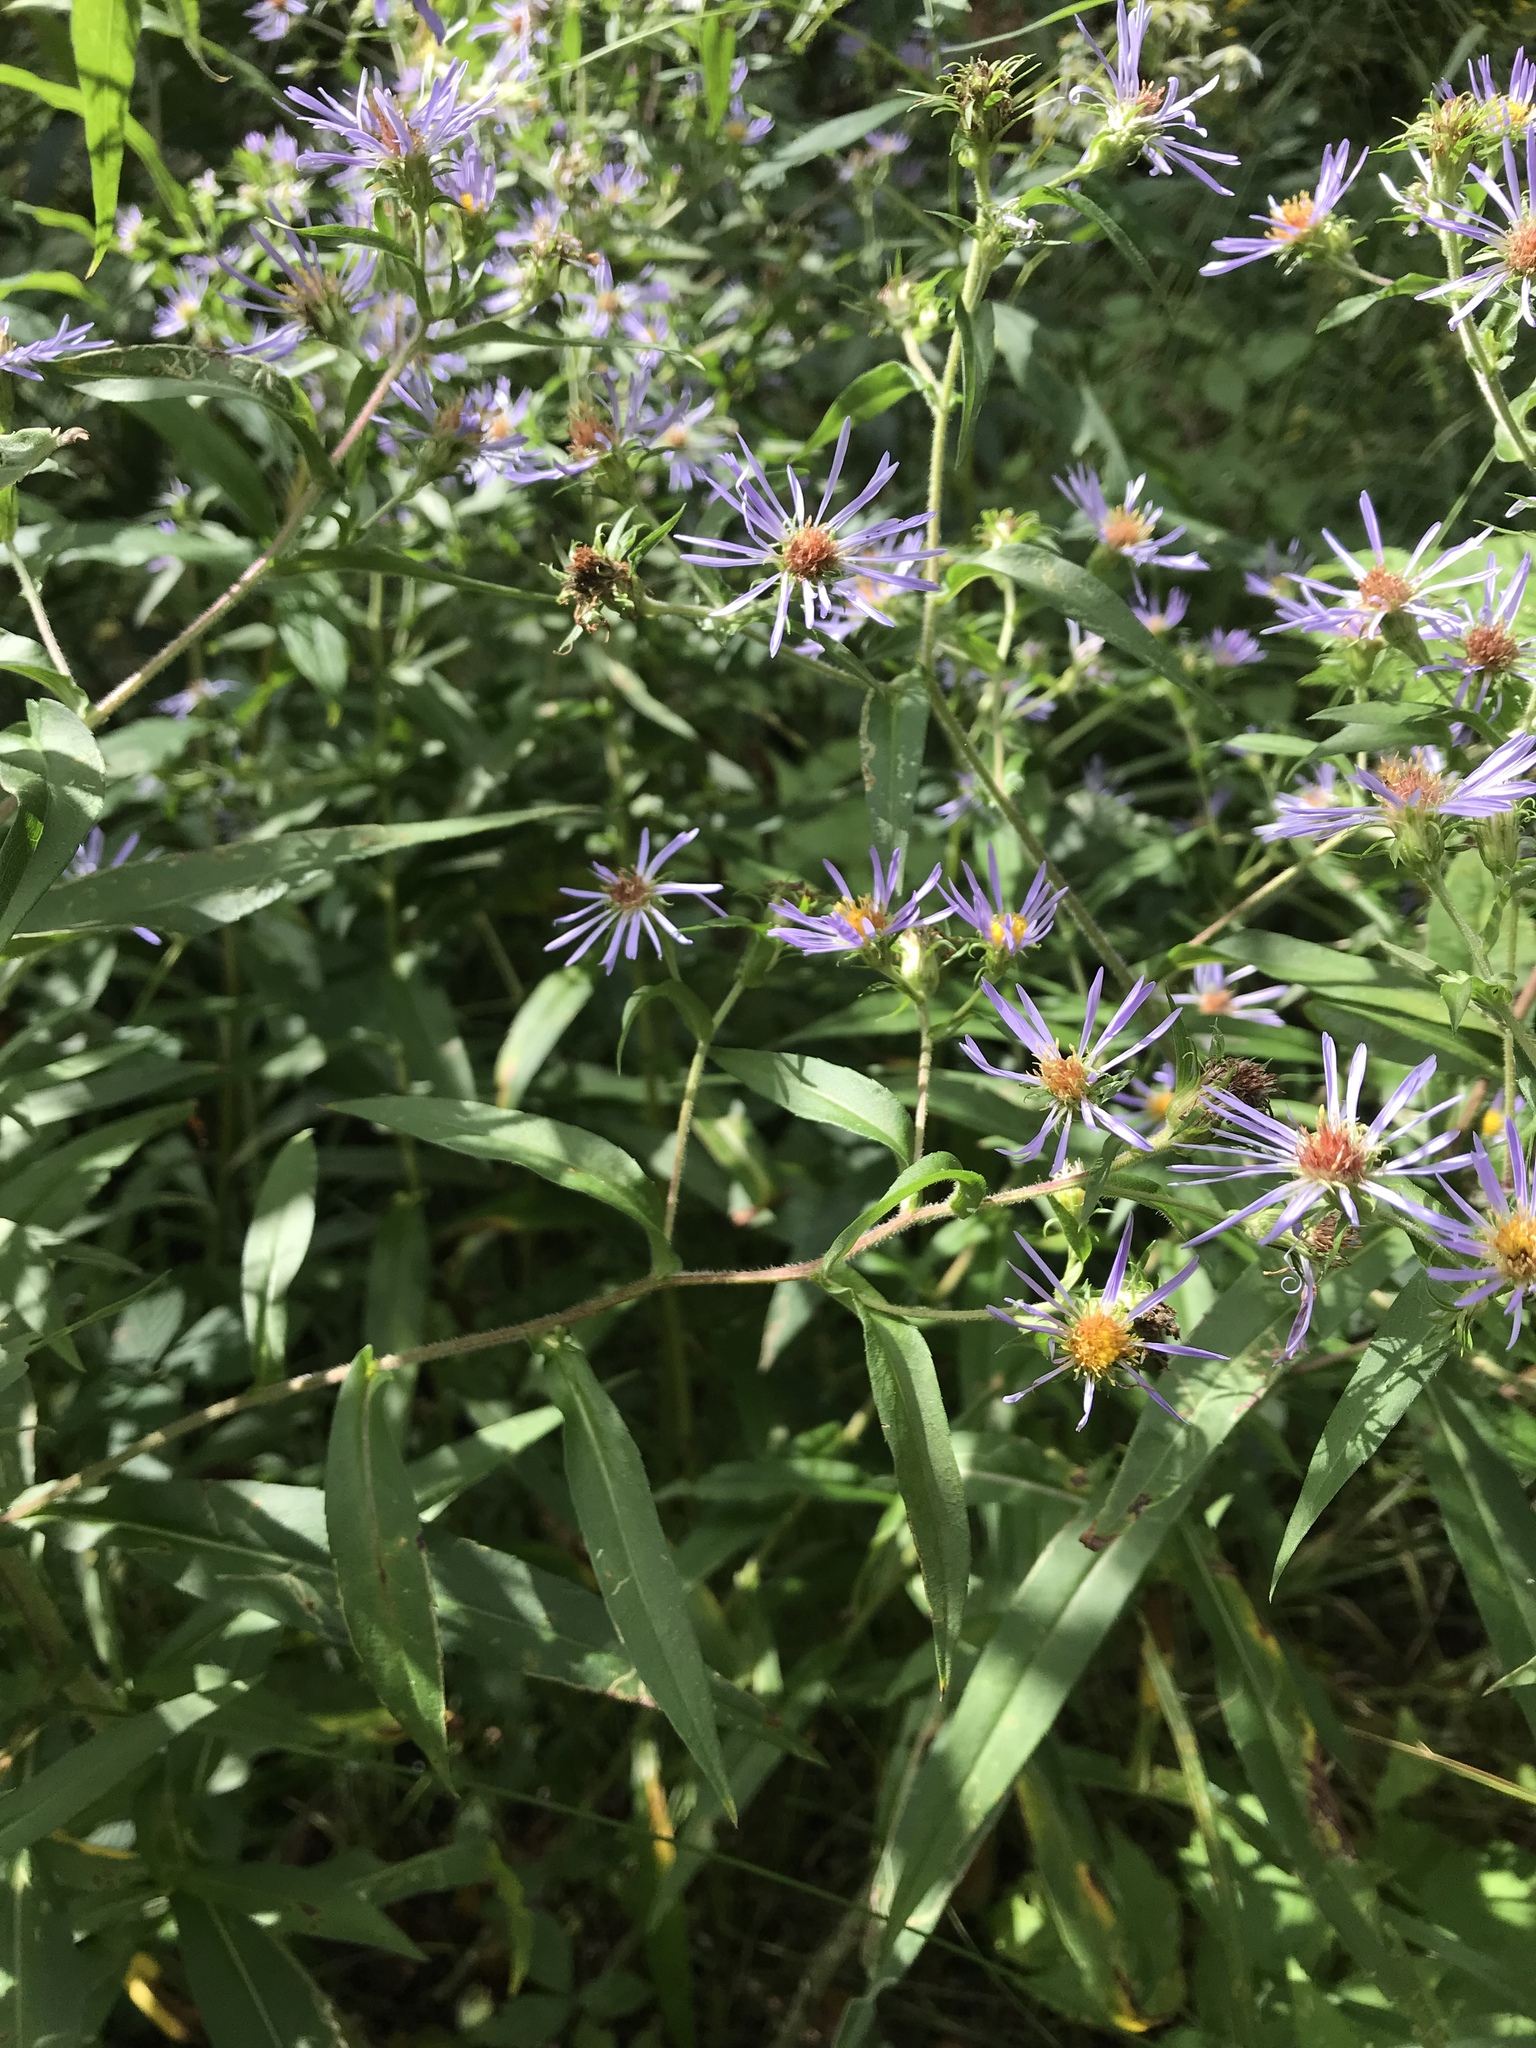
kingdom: Plantae
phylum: Tracheophyta
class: Magnoliopsida
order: Asterales
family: Asteraceae
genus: Symphyotrichum
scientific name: Symphyotrichum puniceum
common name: Bog aster
